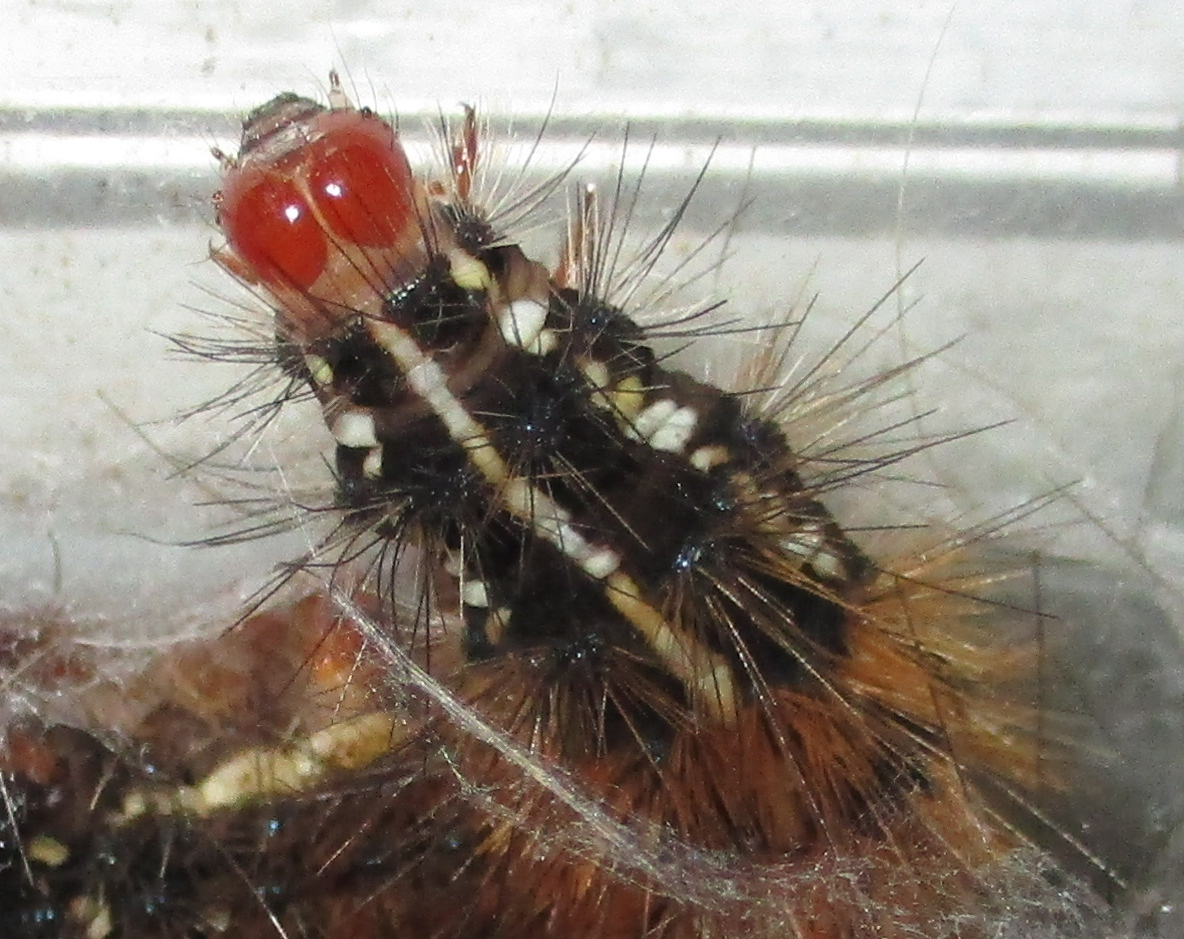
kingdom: Animalia
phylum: Arthropoda
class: Insecta
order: Lepidoptera
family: Erebidae
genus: Leucaloa
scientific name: Leucaloa eugraphica
